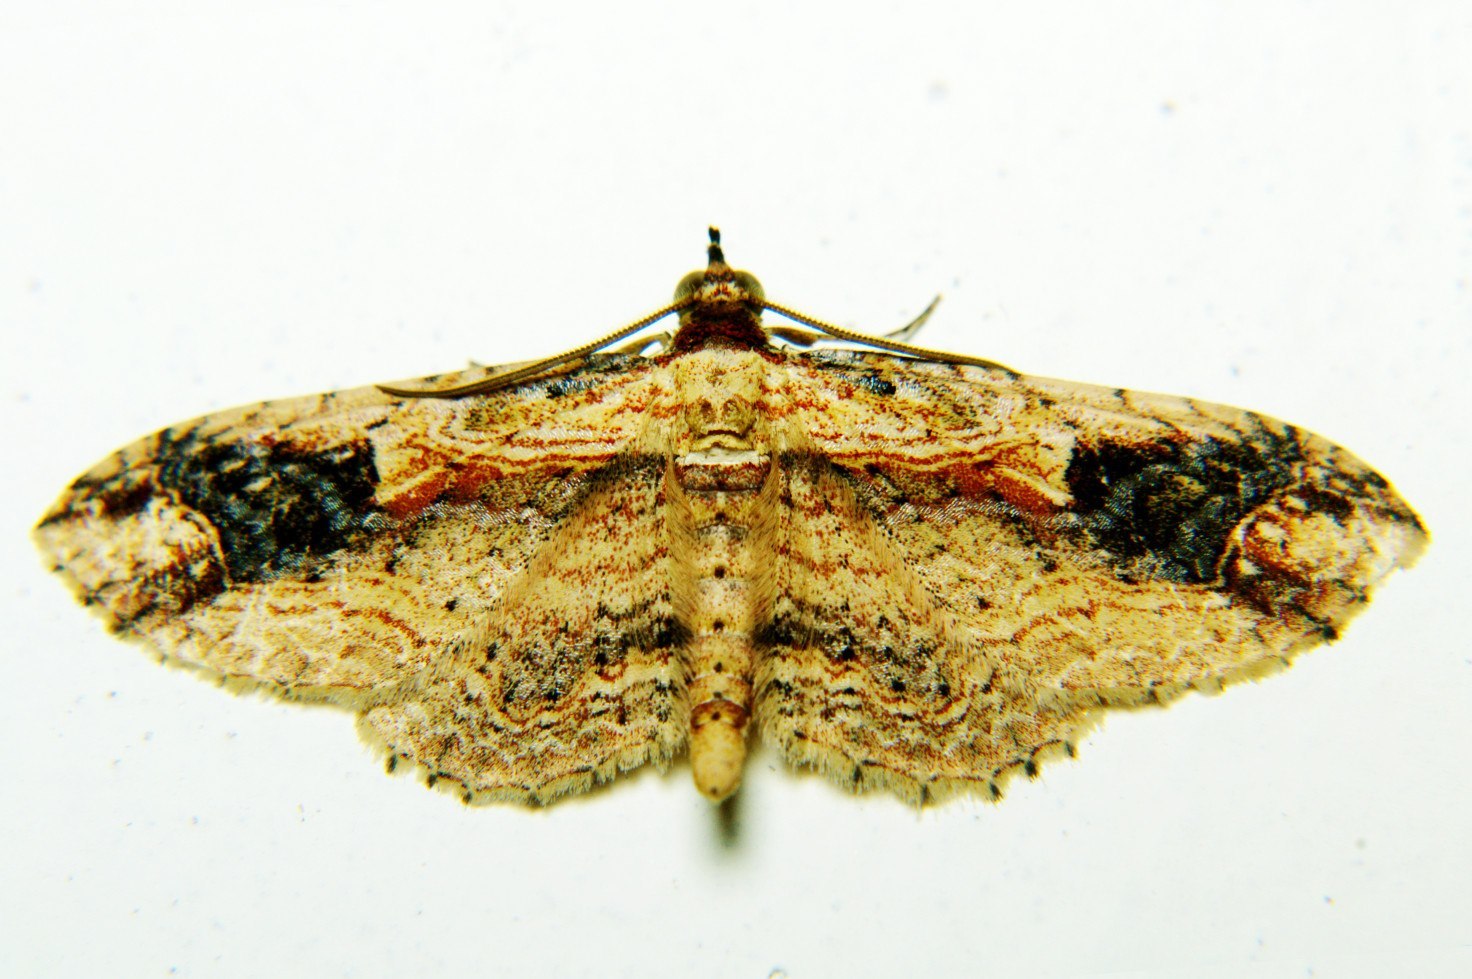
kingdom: Animalia
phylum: Arthropoda
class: Insecta
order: Lepidoptera
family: Geometridae
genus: Ziridava
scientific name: Ziridava xylinaria
